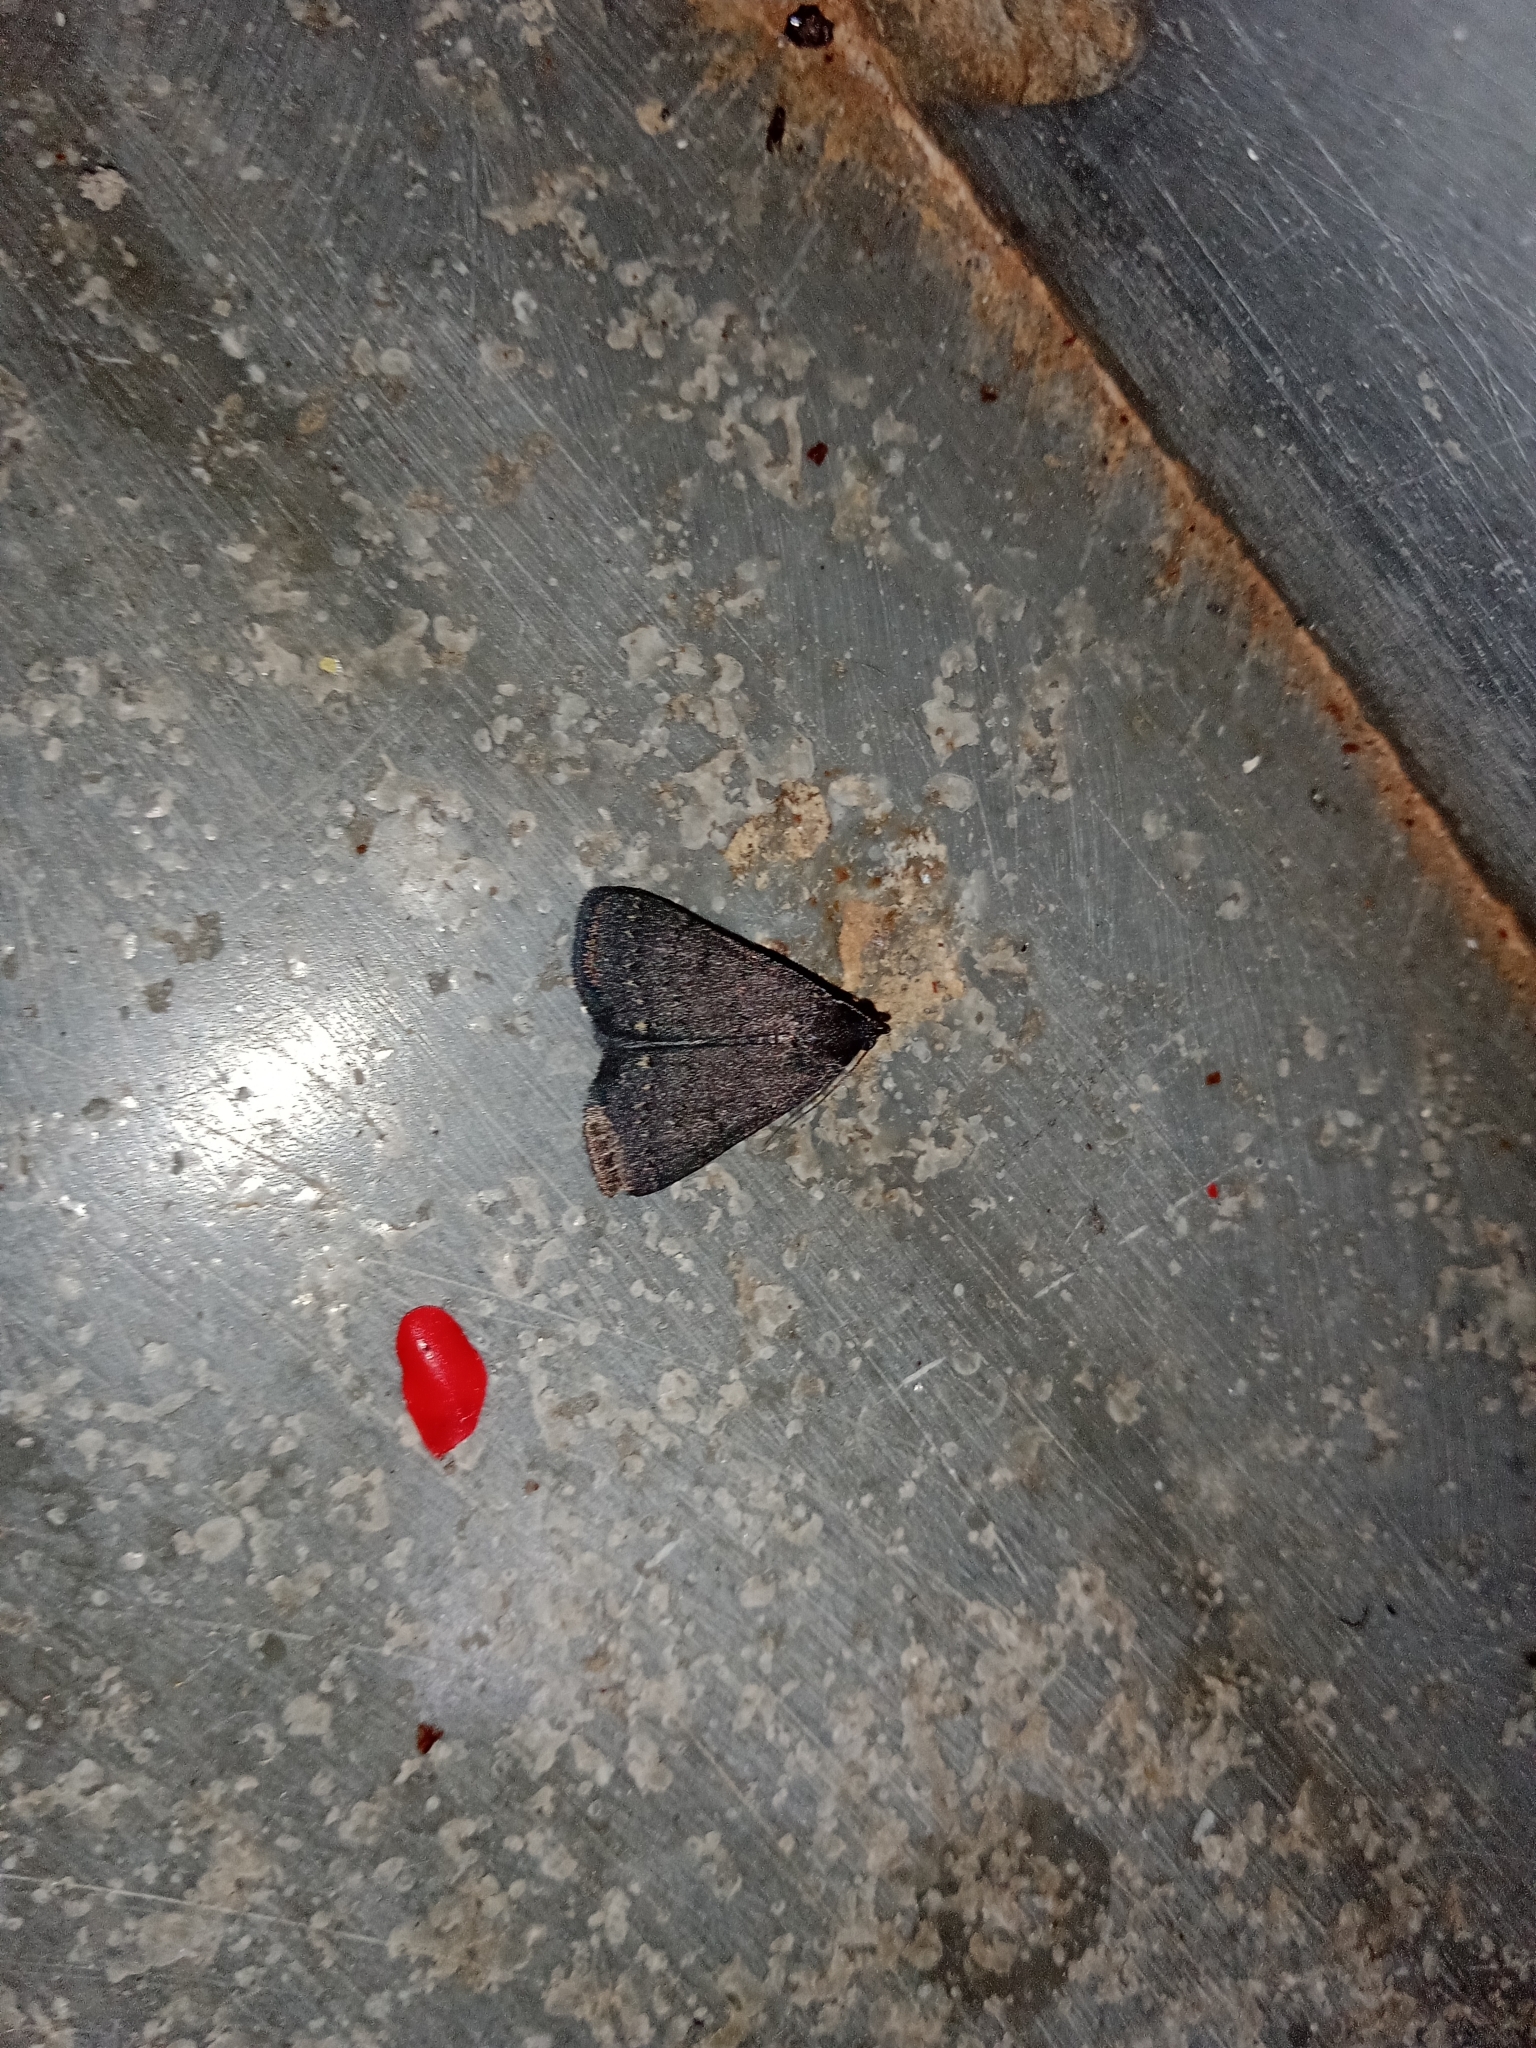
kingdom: Animalia
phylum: Arthropoda
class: Insecta
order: Lepidoptera
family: Erebidae
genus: Nodaria
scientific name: Nodaria externalis
